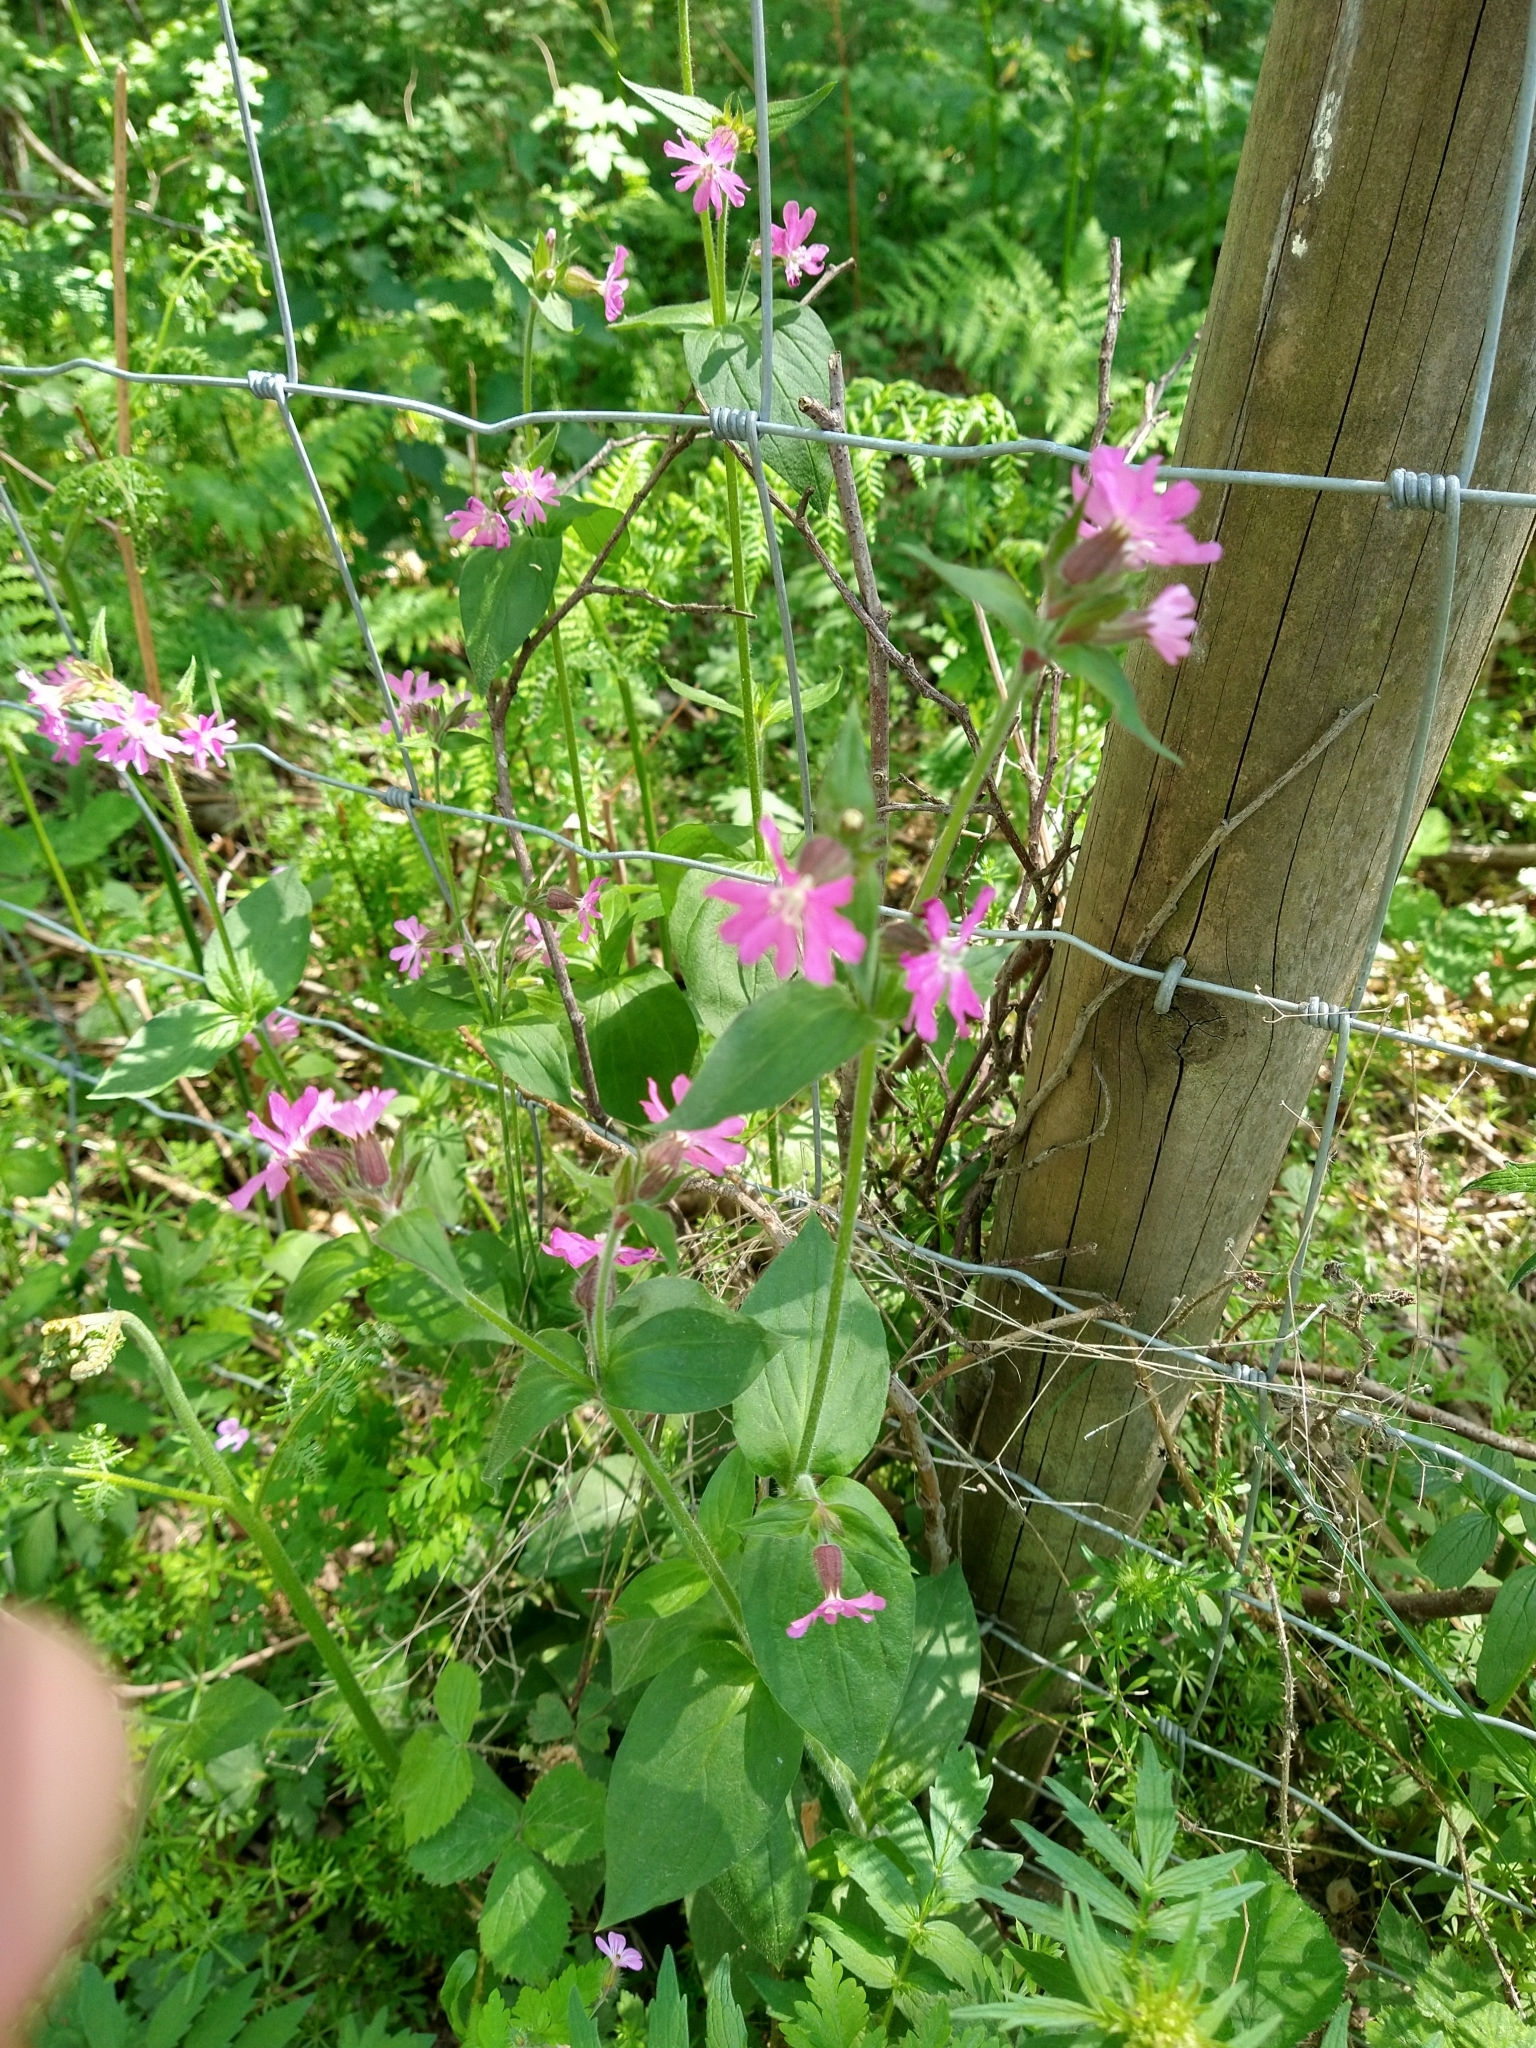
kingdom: Plantae
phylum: Tracheophyta
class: Magnoliopsida
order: Caryophyllales
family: Caryophyllaceae
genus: Silene
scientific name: Silene dioica
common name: Red campion
